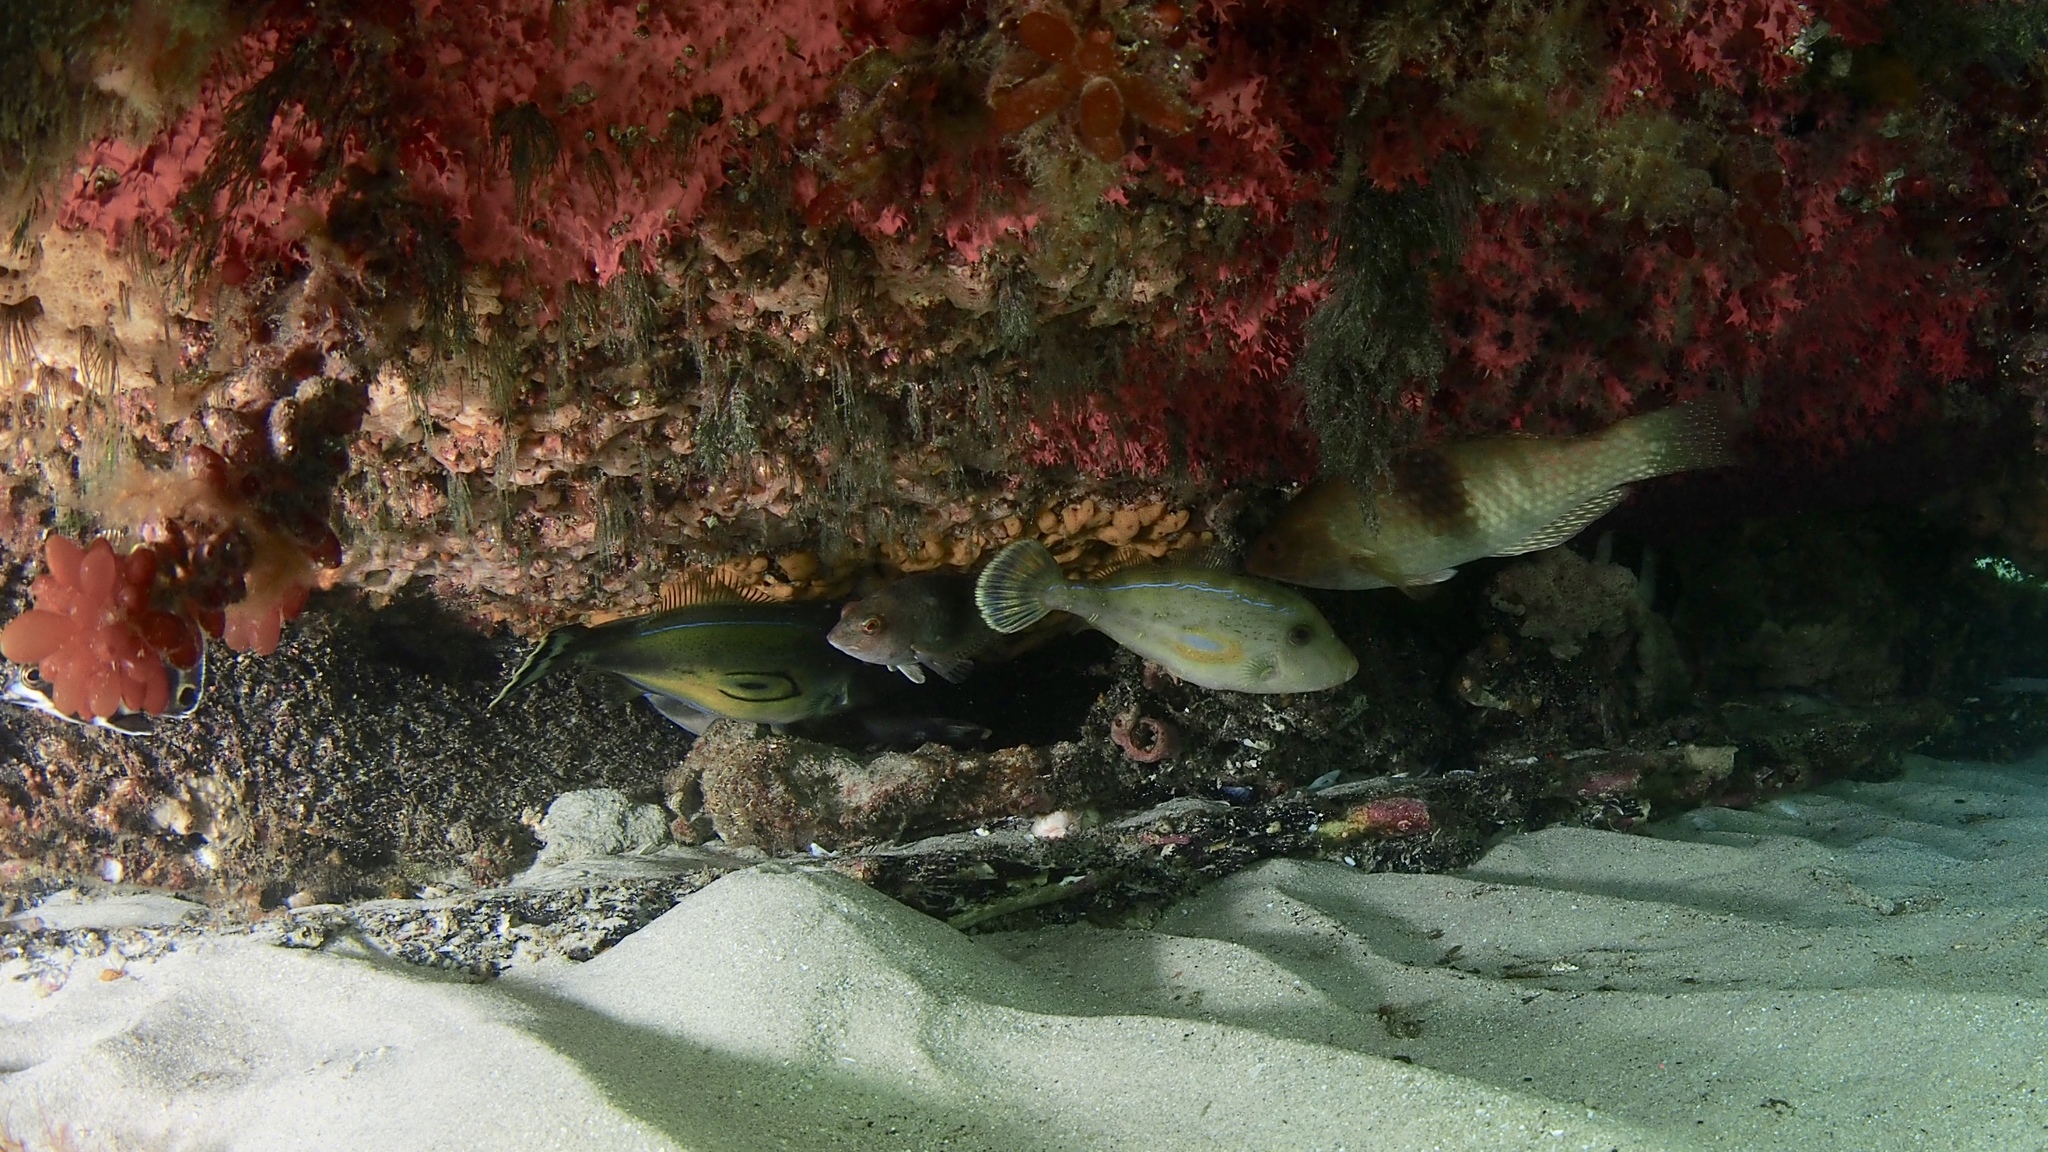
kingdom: Animalia
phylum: Chordata
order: Tetraodontiformes
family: Monacanthidae
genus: Meuschenia
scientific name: Meuschenia hippocrepis
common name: Horse-shoe leatherjacket
